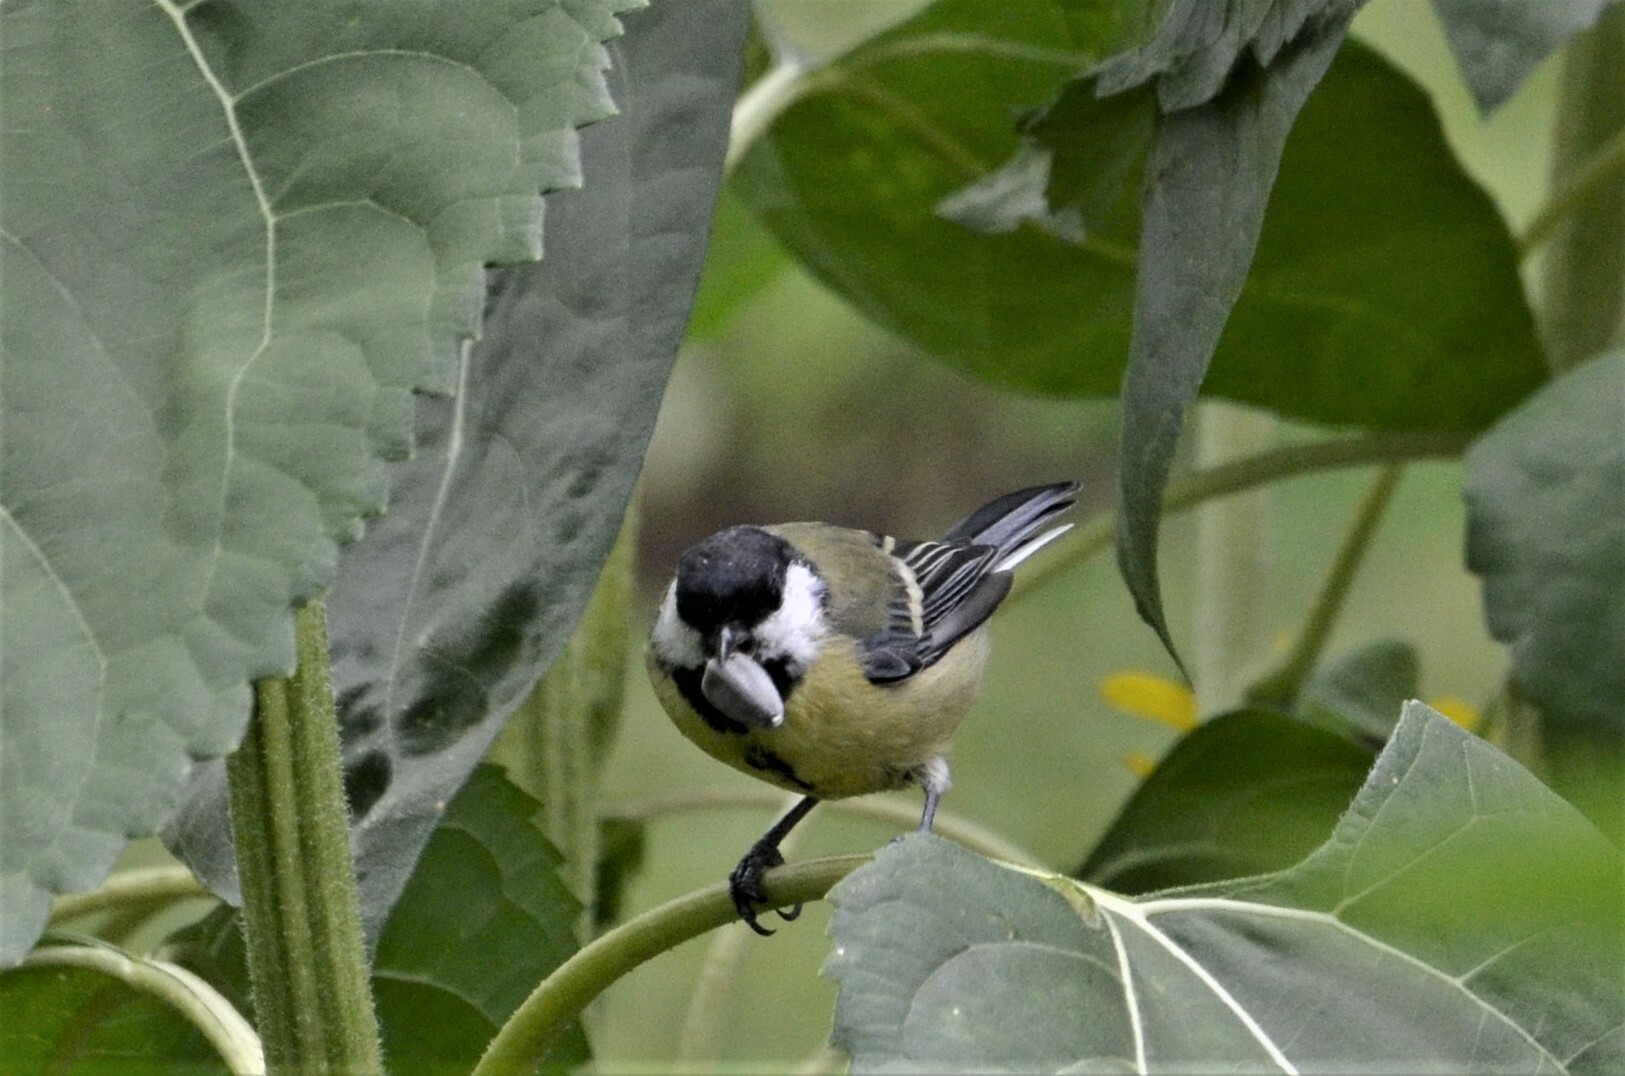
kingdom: Animalia
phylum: Chordata
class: Aves
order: Passeriformes
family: Paridae
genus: Parus
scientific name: Parus major
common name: Great tit
